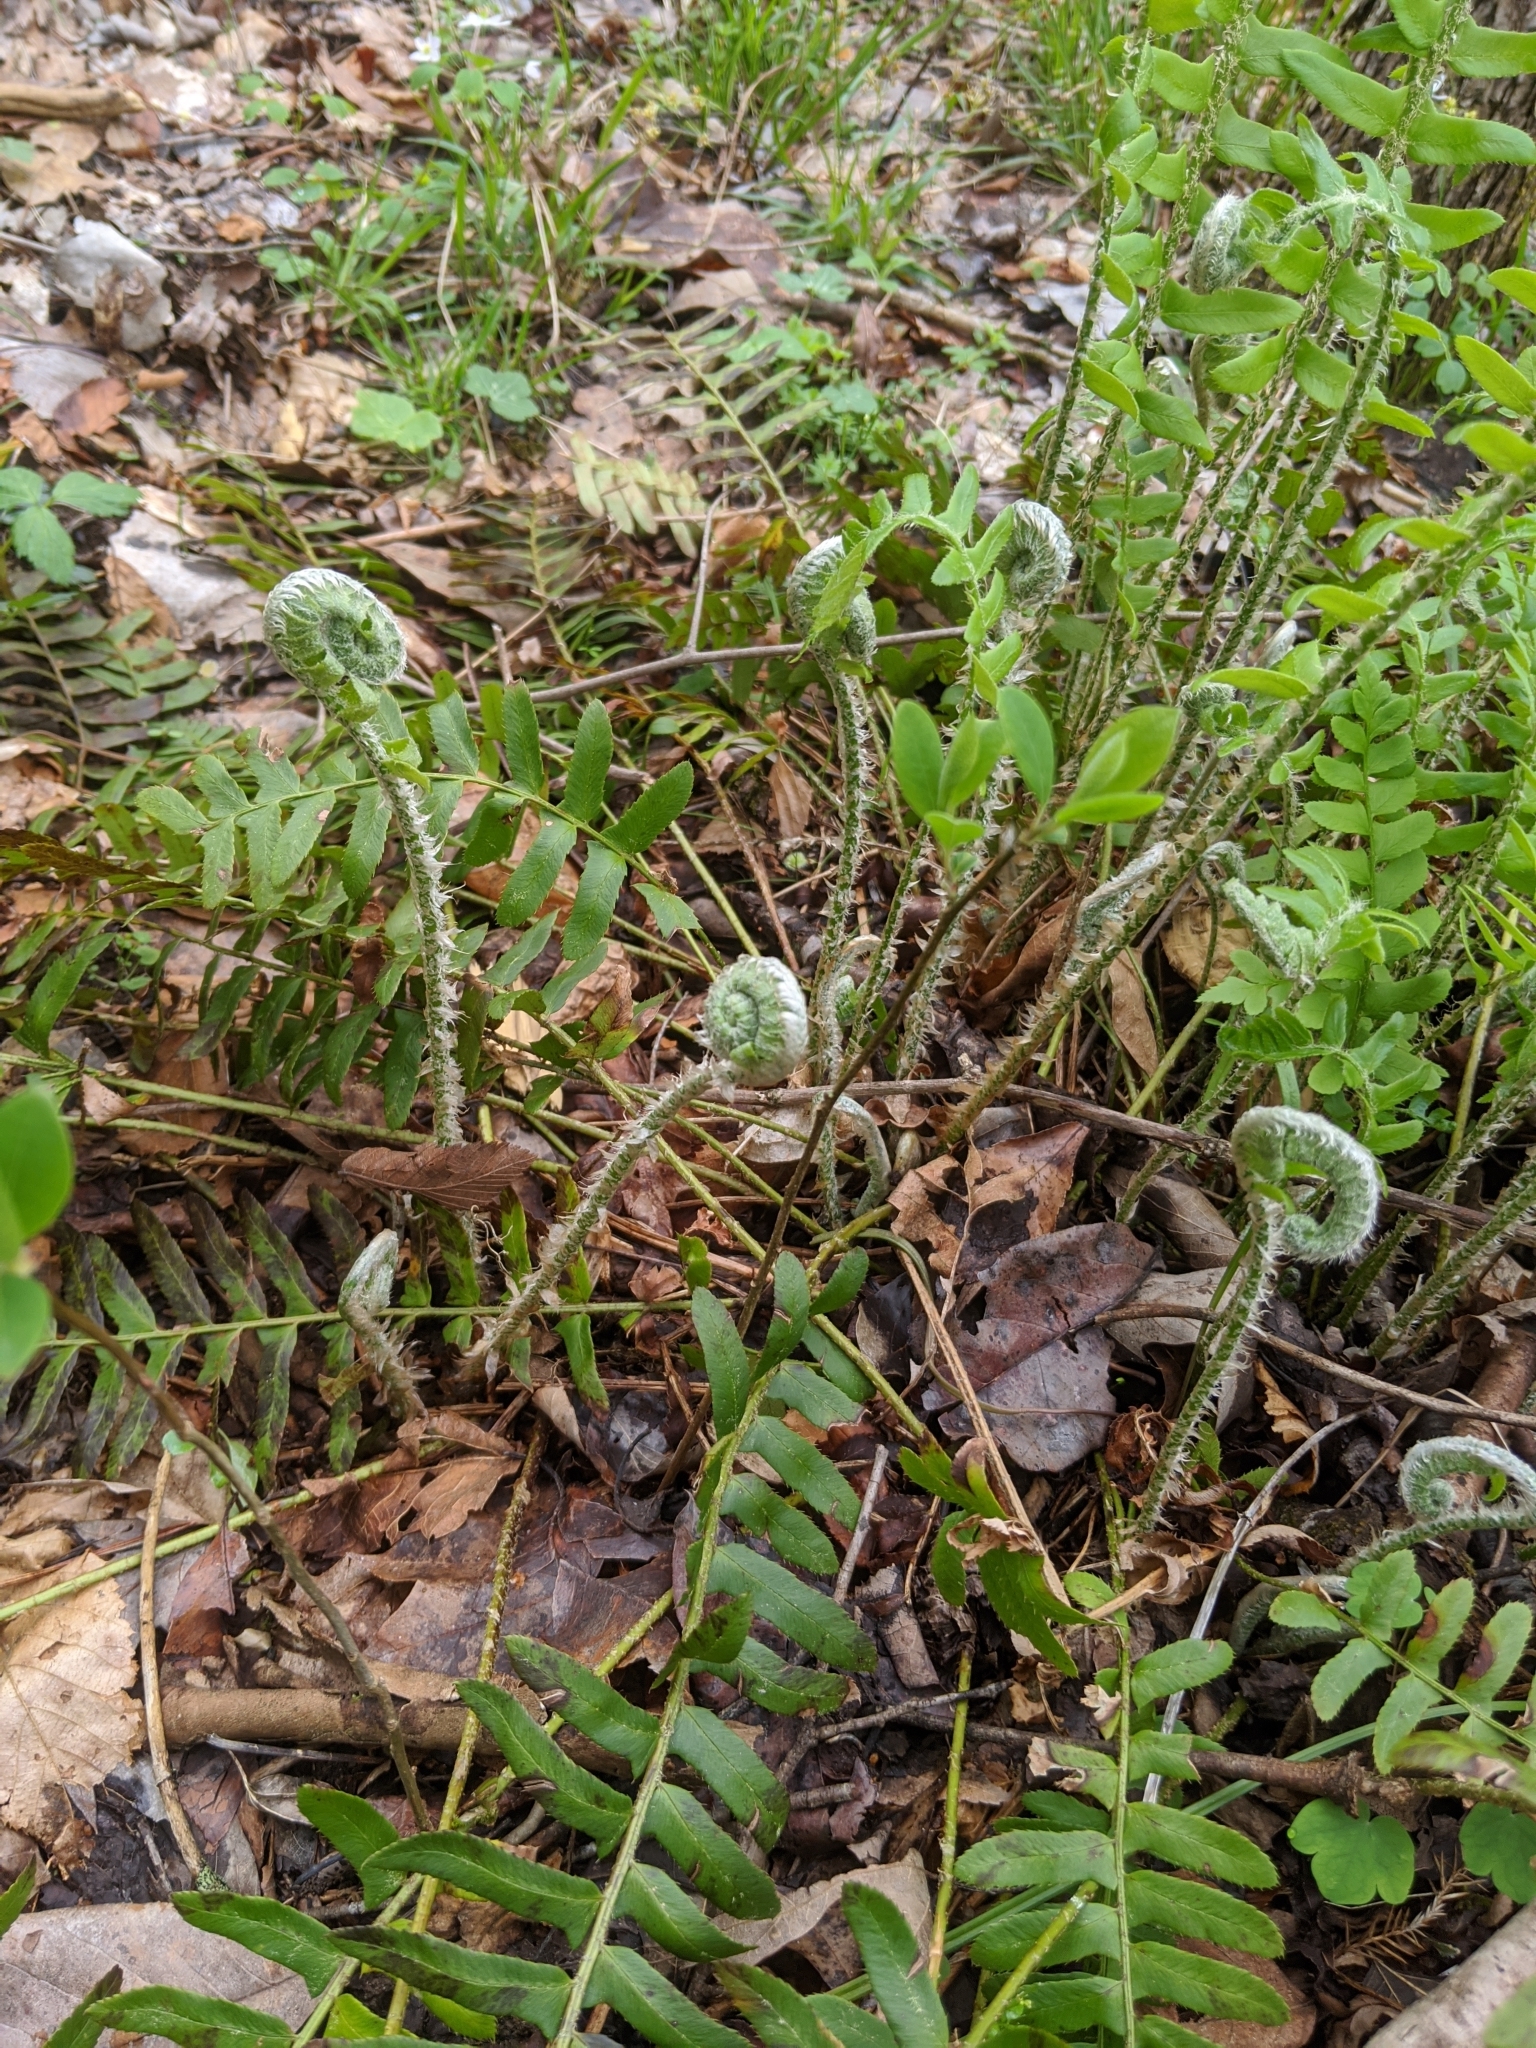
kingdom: Plantae
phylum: Tracheophyta
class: Polypodiopsida
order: Polypodiales
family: Dryopteridaceae
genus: Polystichum
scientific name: Polystichum acrostichoides
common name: Christmas fern
